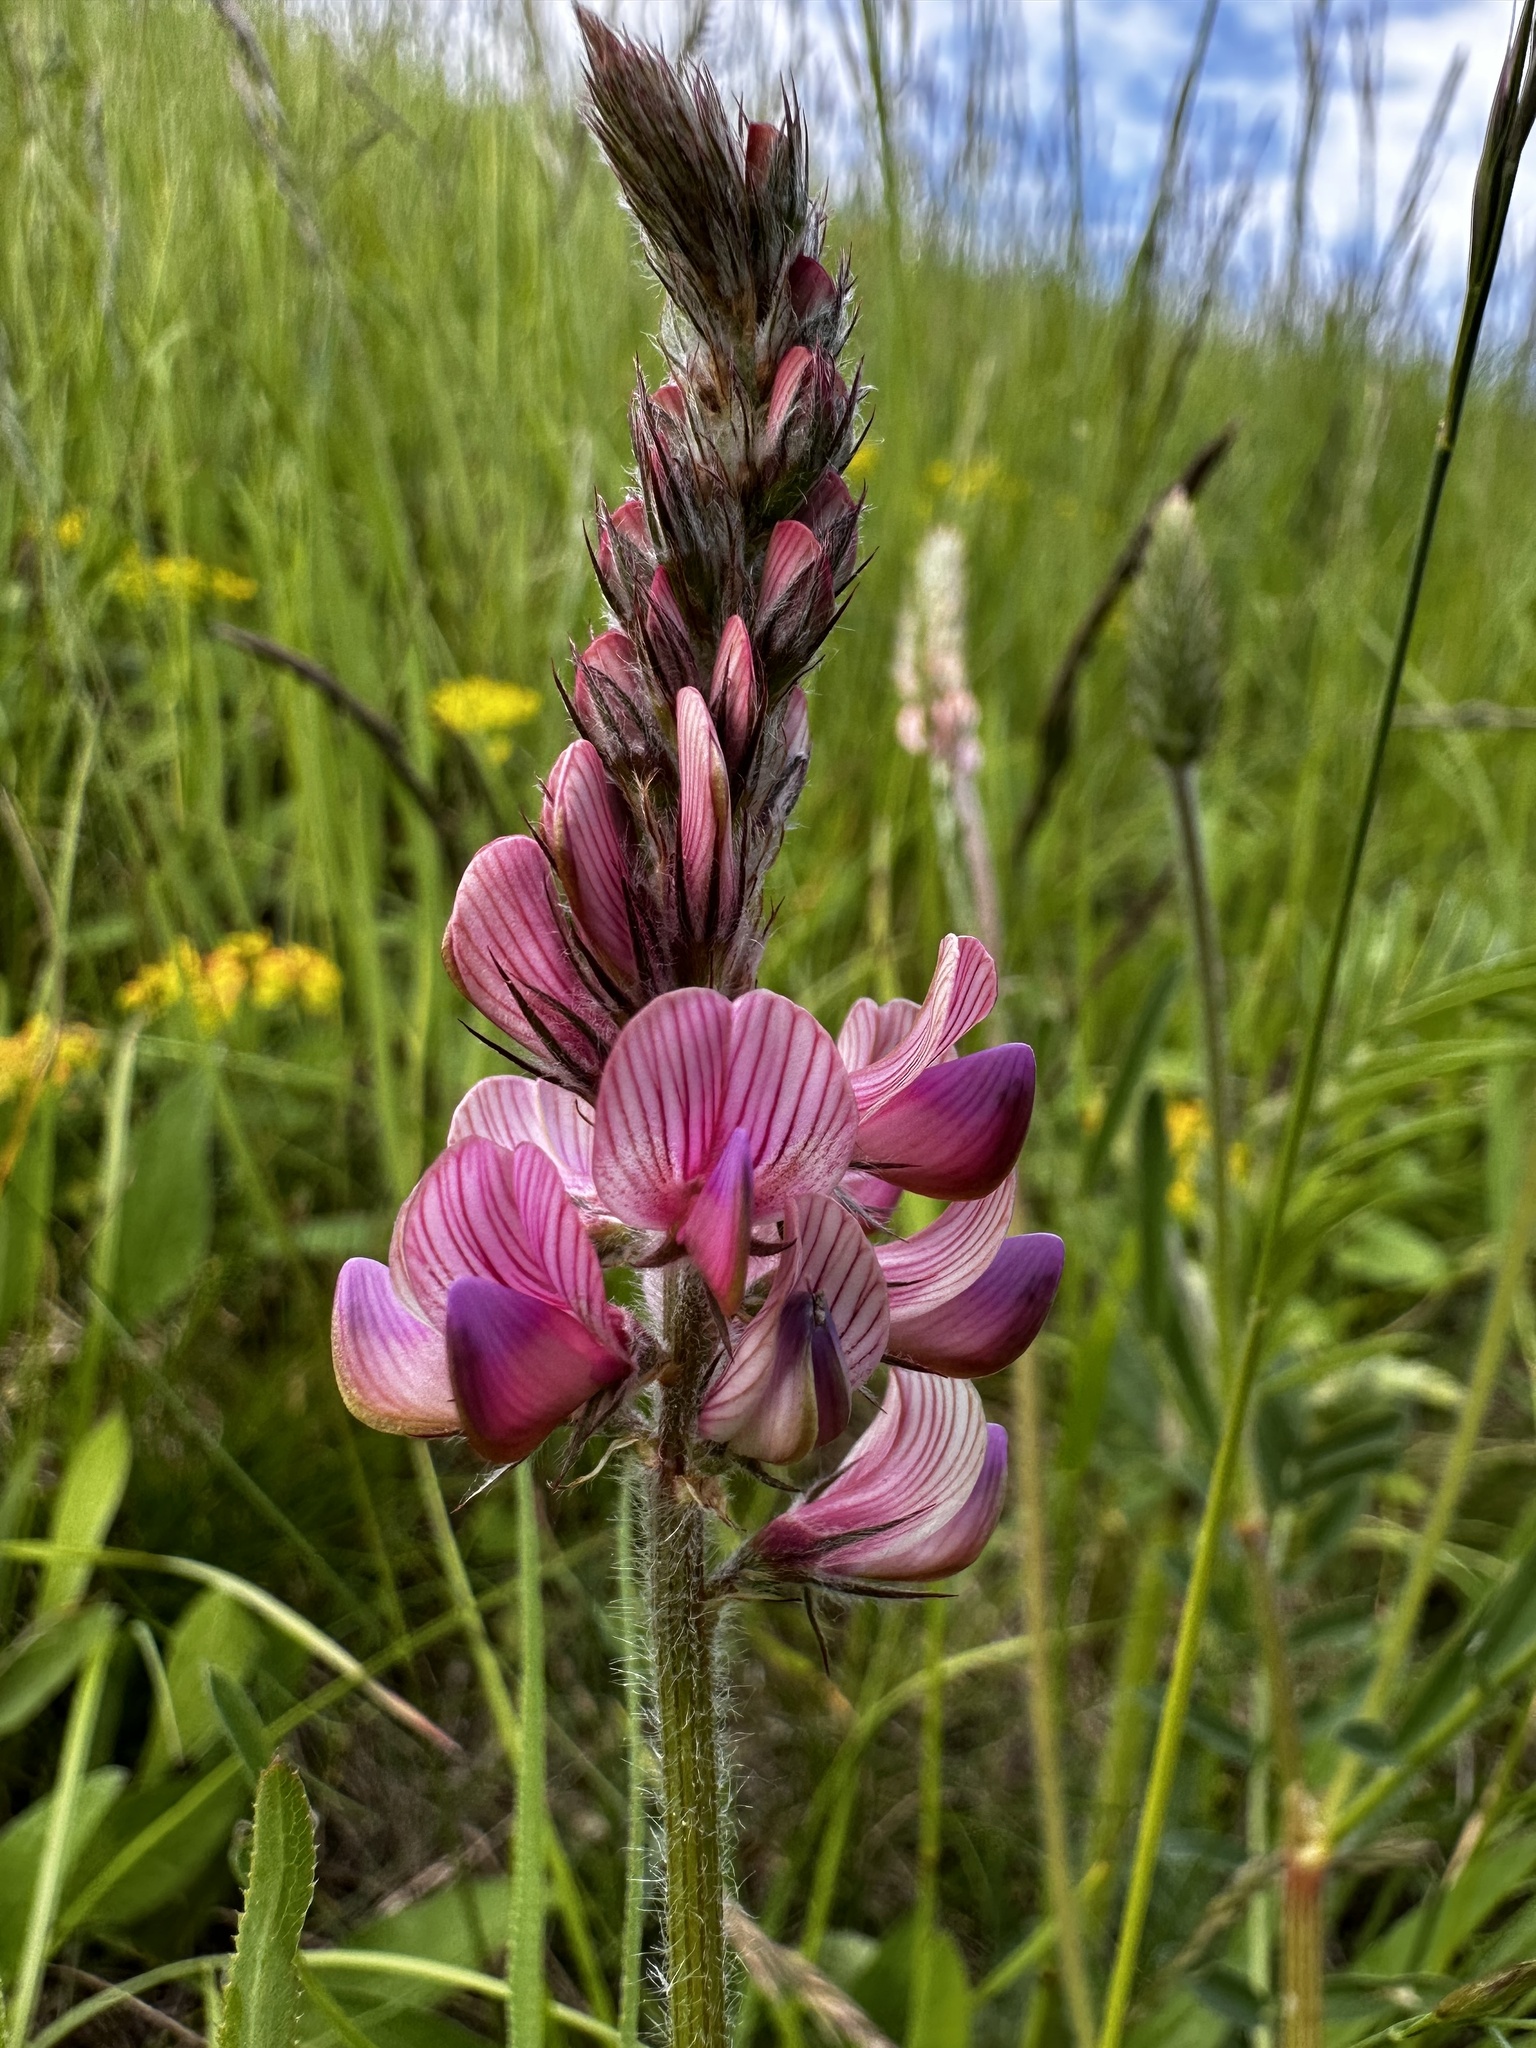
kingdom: Plantae
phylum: Tracheophyta
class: Magnoliopsida
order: Fabales
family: Fabaceae
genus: Onobrychis
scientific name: Onobrychis viciifolia
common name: Sainfoin
